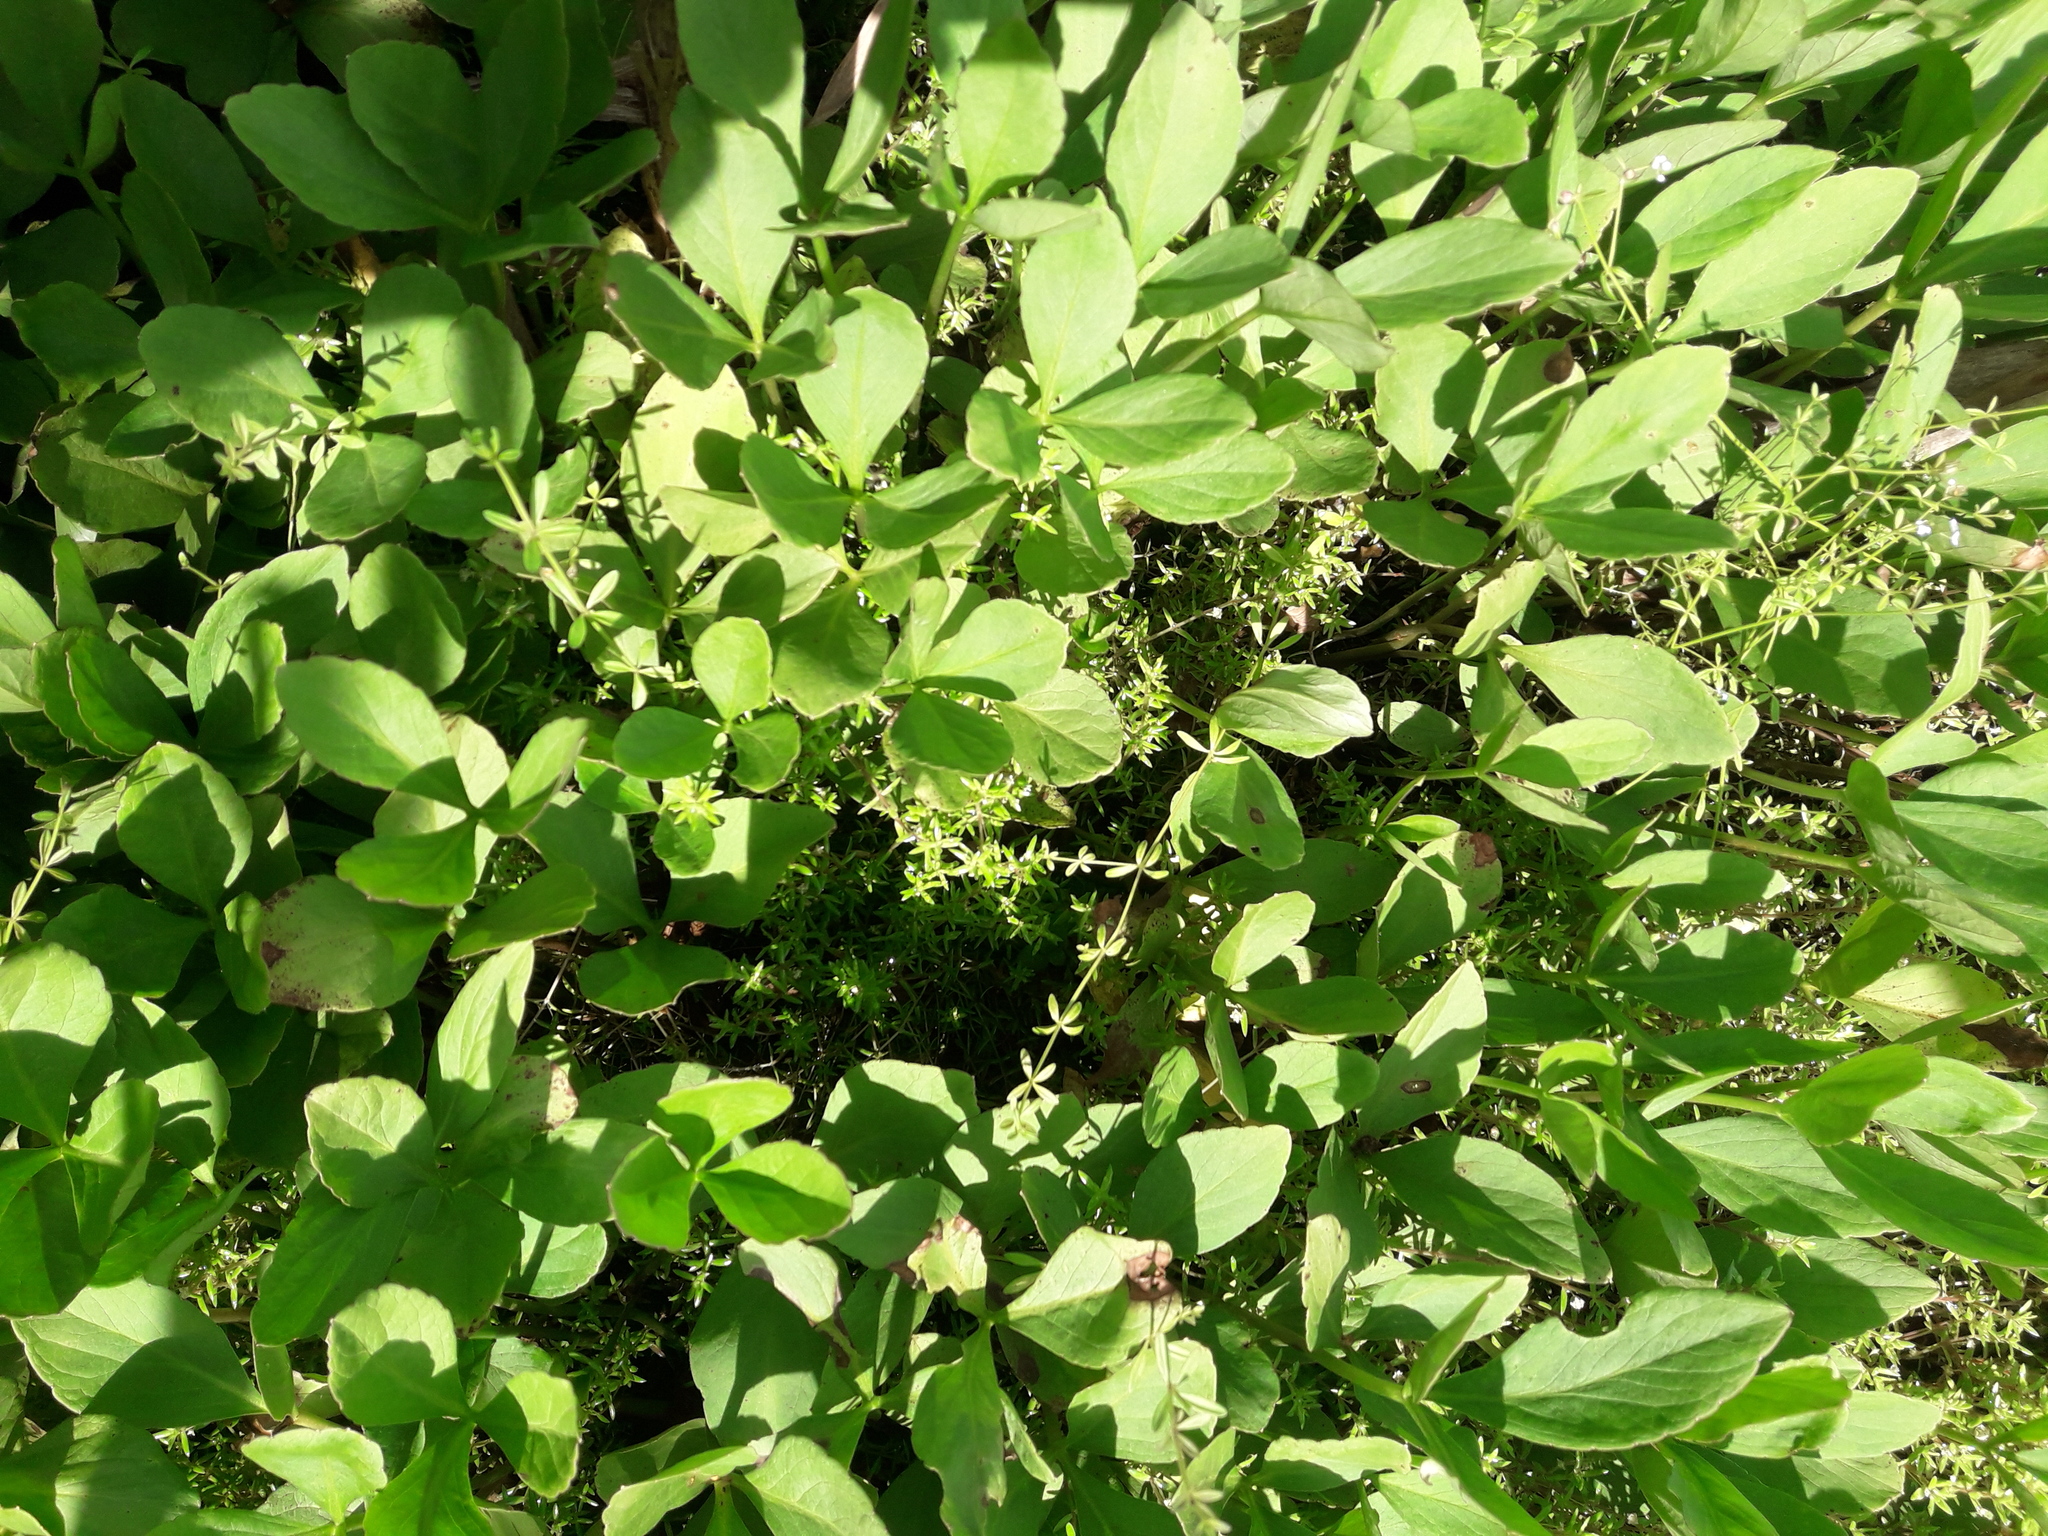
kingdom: Plantae
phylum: Tracheophyta
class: Magnoliopsida
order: Asterales
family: Menyanthaceae
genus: Menyanthes
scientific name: Menyanthes trifoliata
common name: Bogbean
